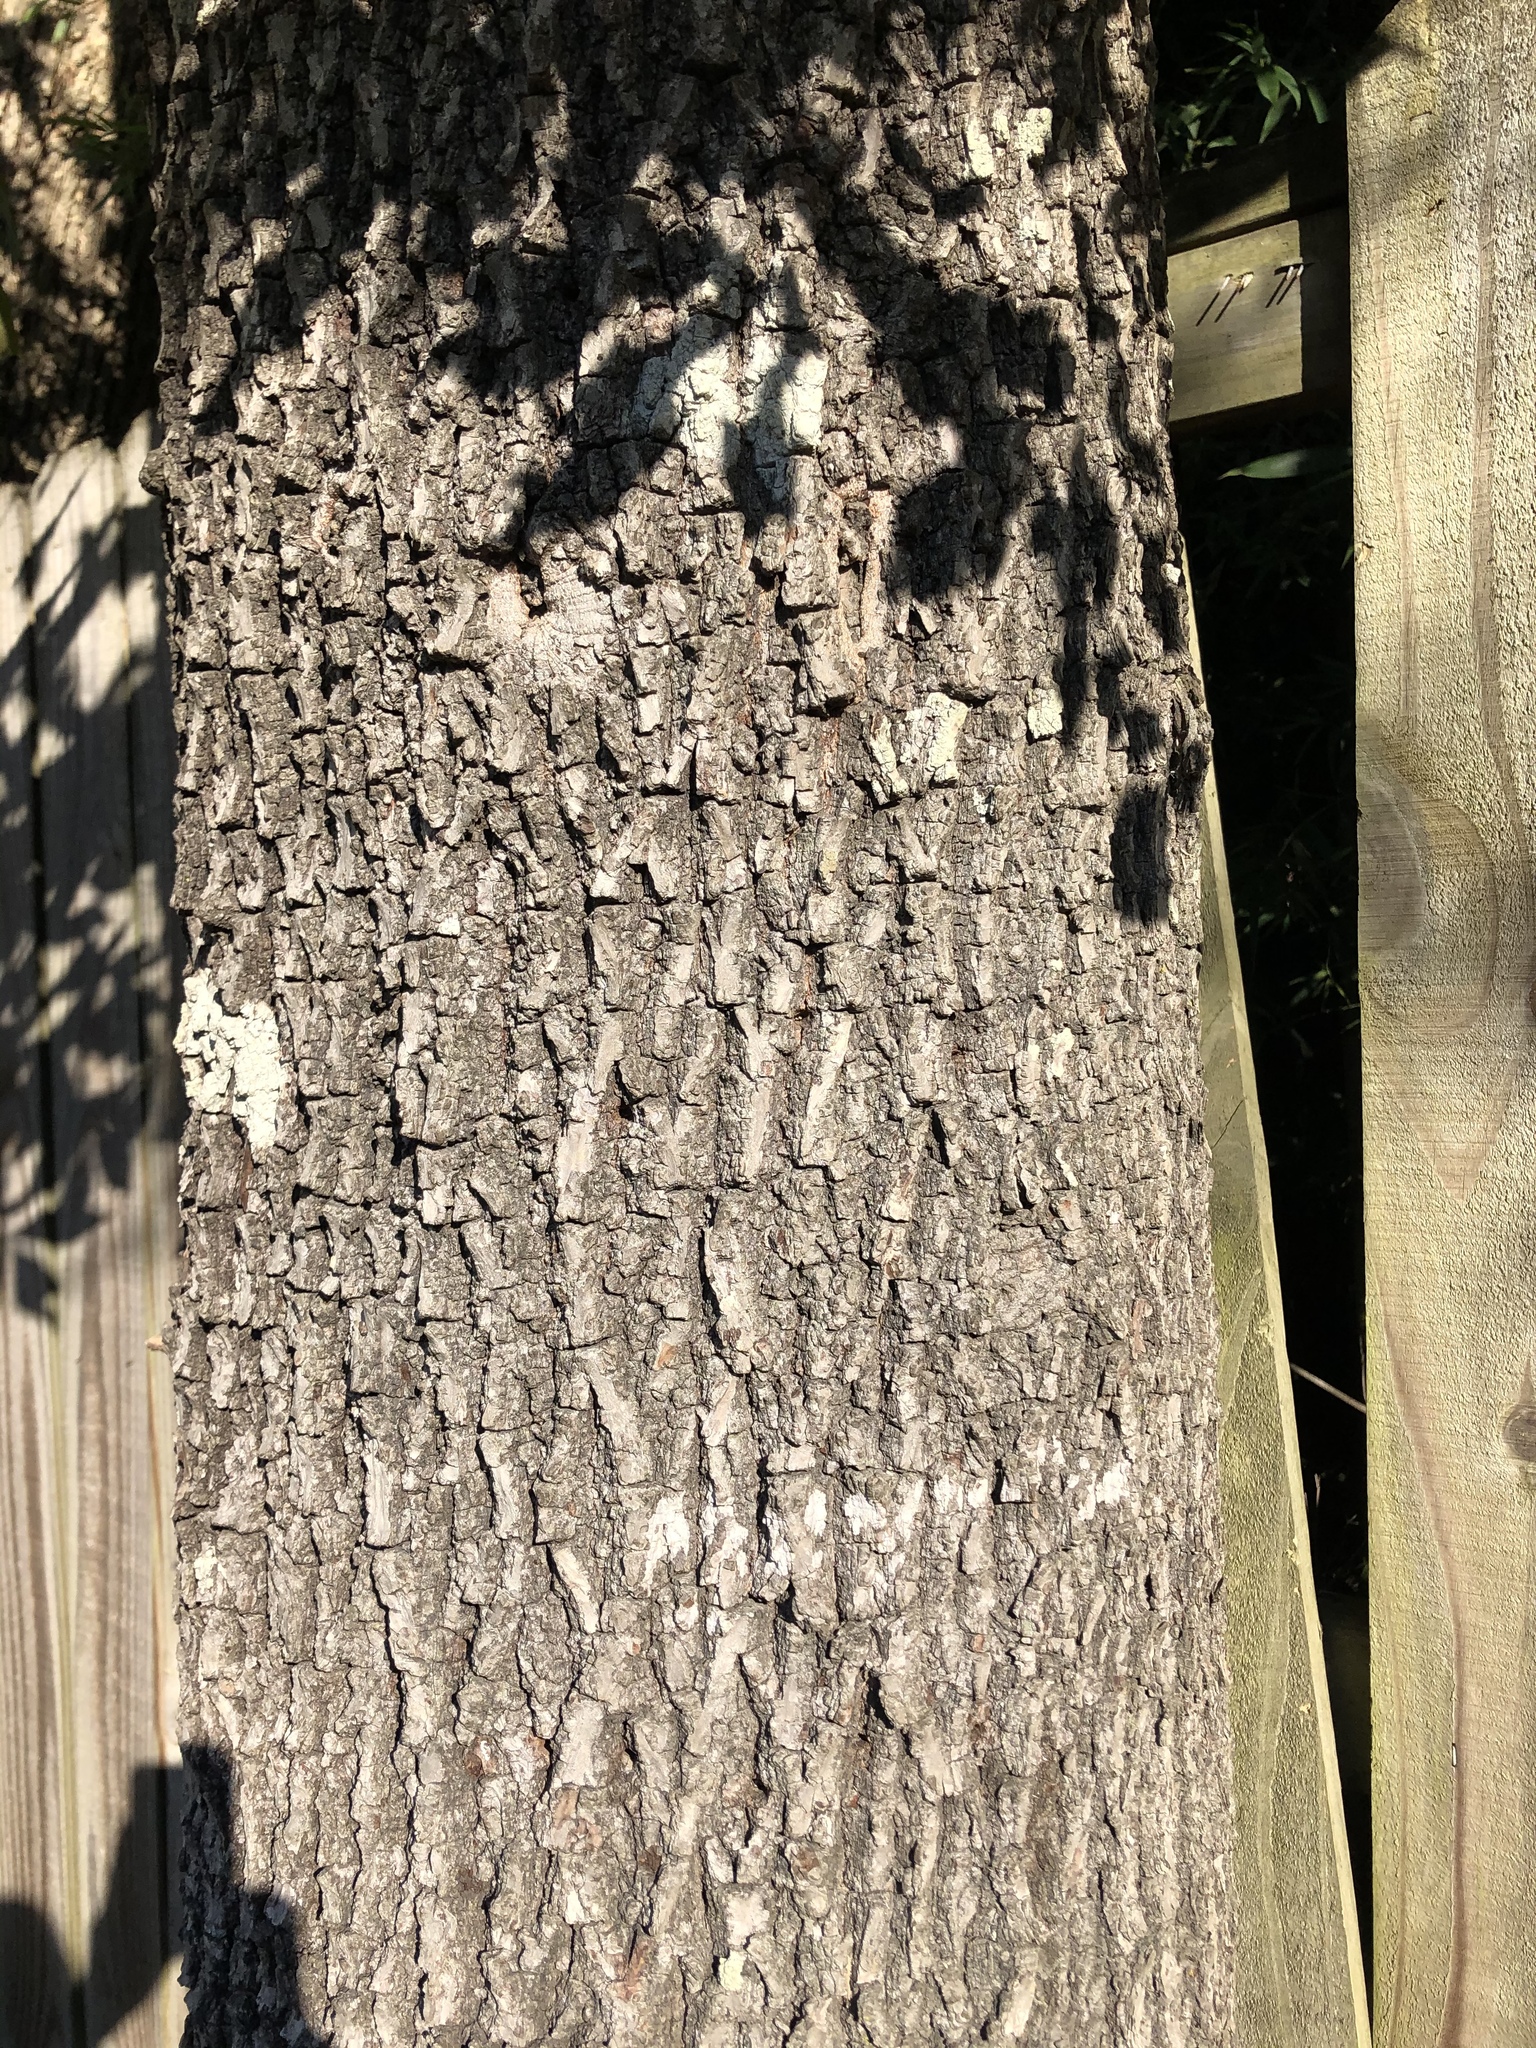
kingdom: Plantae
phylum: Tracheophyta
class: Magnoliopsida
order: Fagales
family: Juglandaceae
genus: Carya
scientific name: Carya texana
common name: Black hickory
